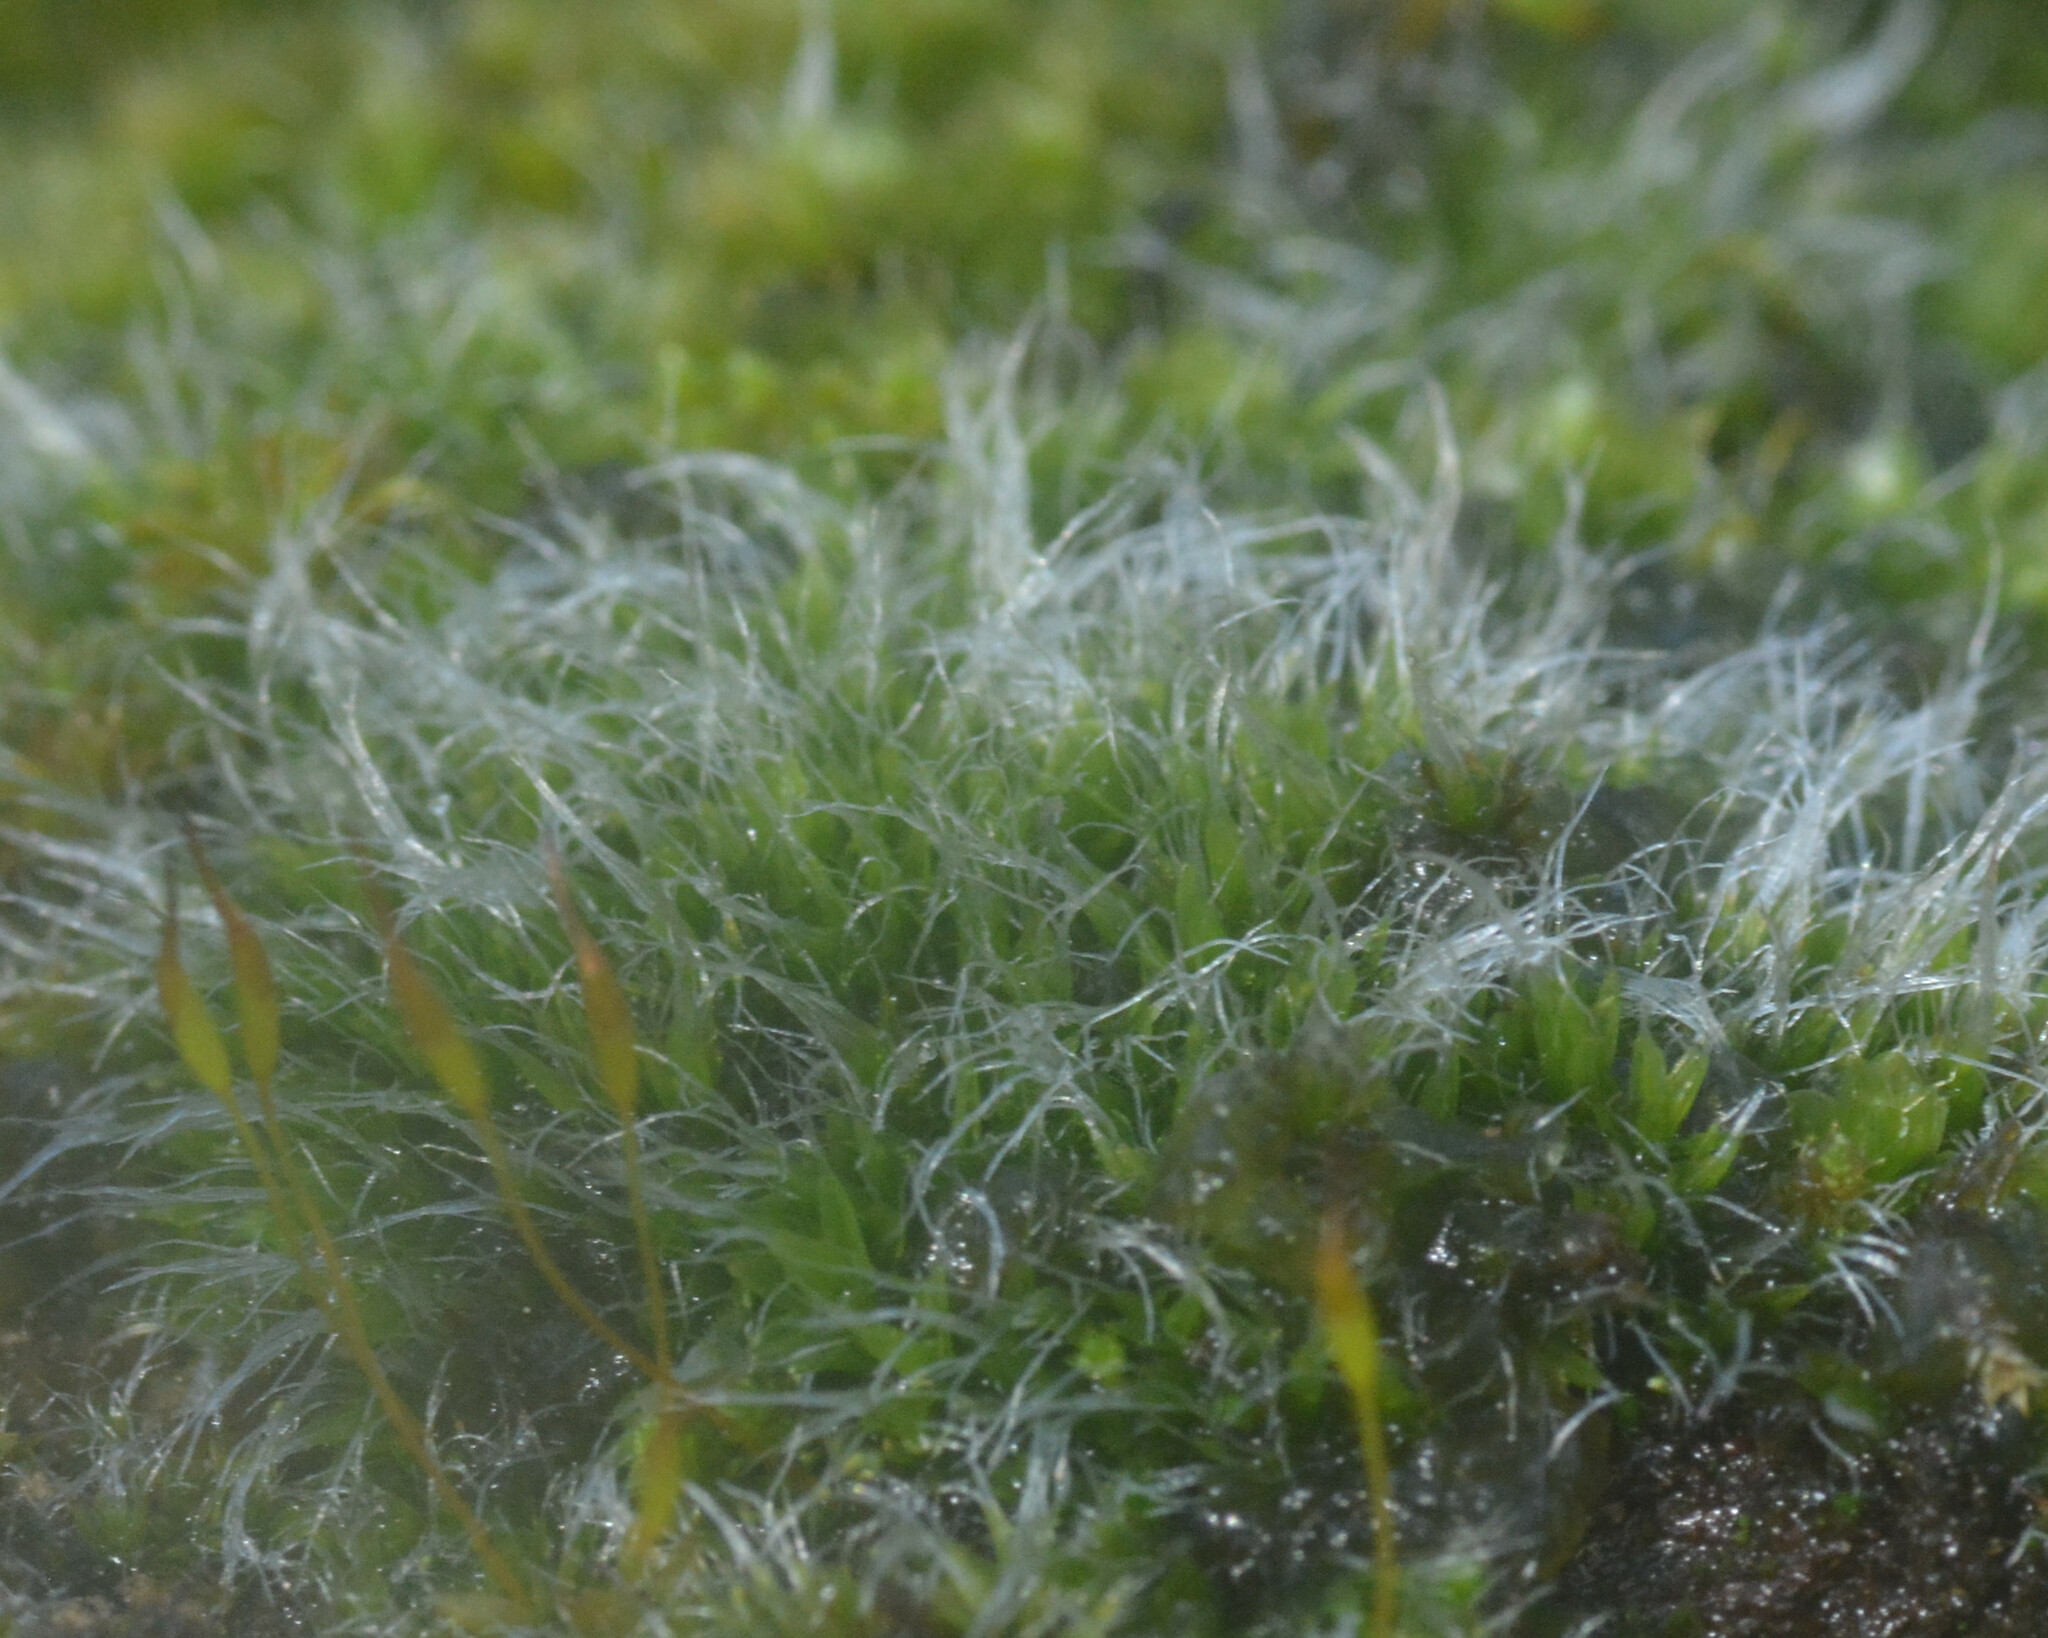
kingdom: Plantae
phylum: Bryophyta
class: Bryopsida
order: Grimmiales
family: Grimmiaceae
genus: Grimmia
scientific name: Grimmia pulvinata
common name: Grey-cushioned grimmia
